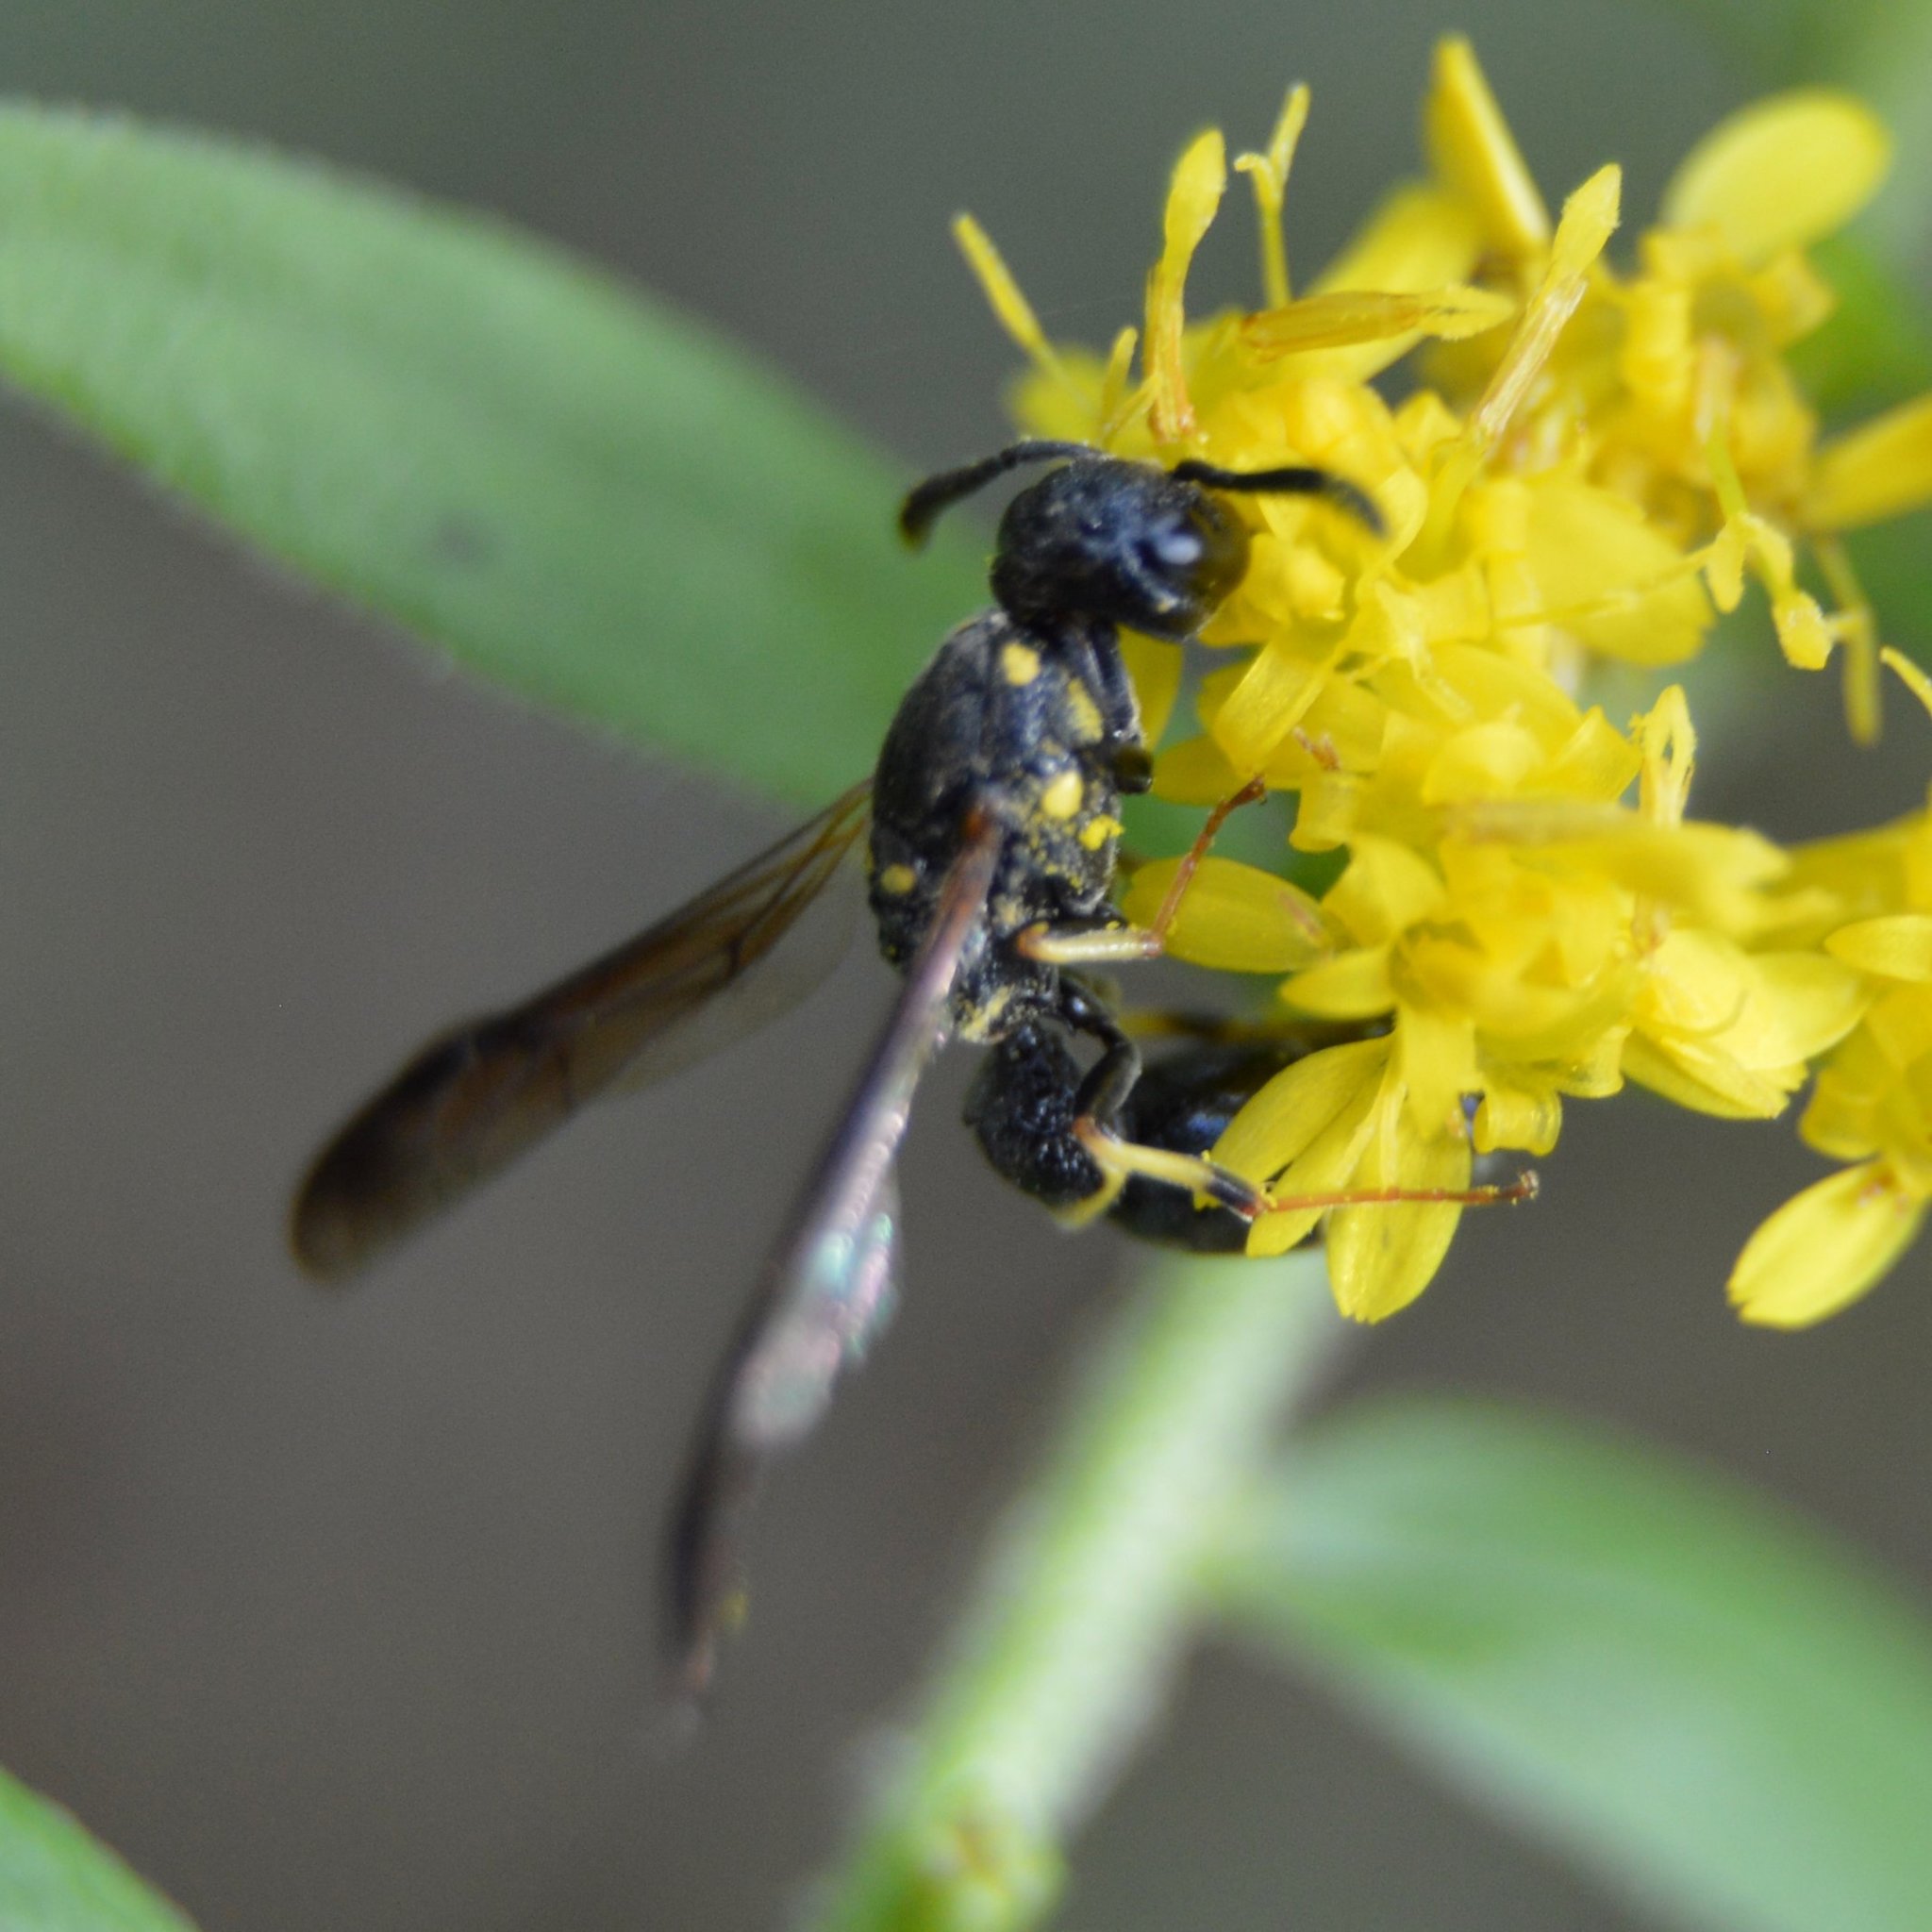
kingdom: Animalia
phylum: Arthropoda
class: Insecta
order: Hymenoptera
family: Eumenidae
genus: Symmorphus
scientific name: Symmorphus canadensis
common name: Canadian potter wasp
